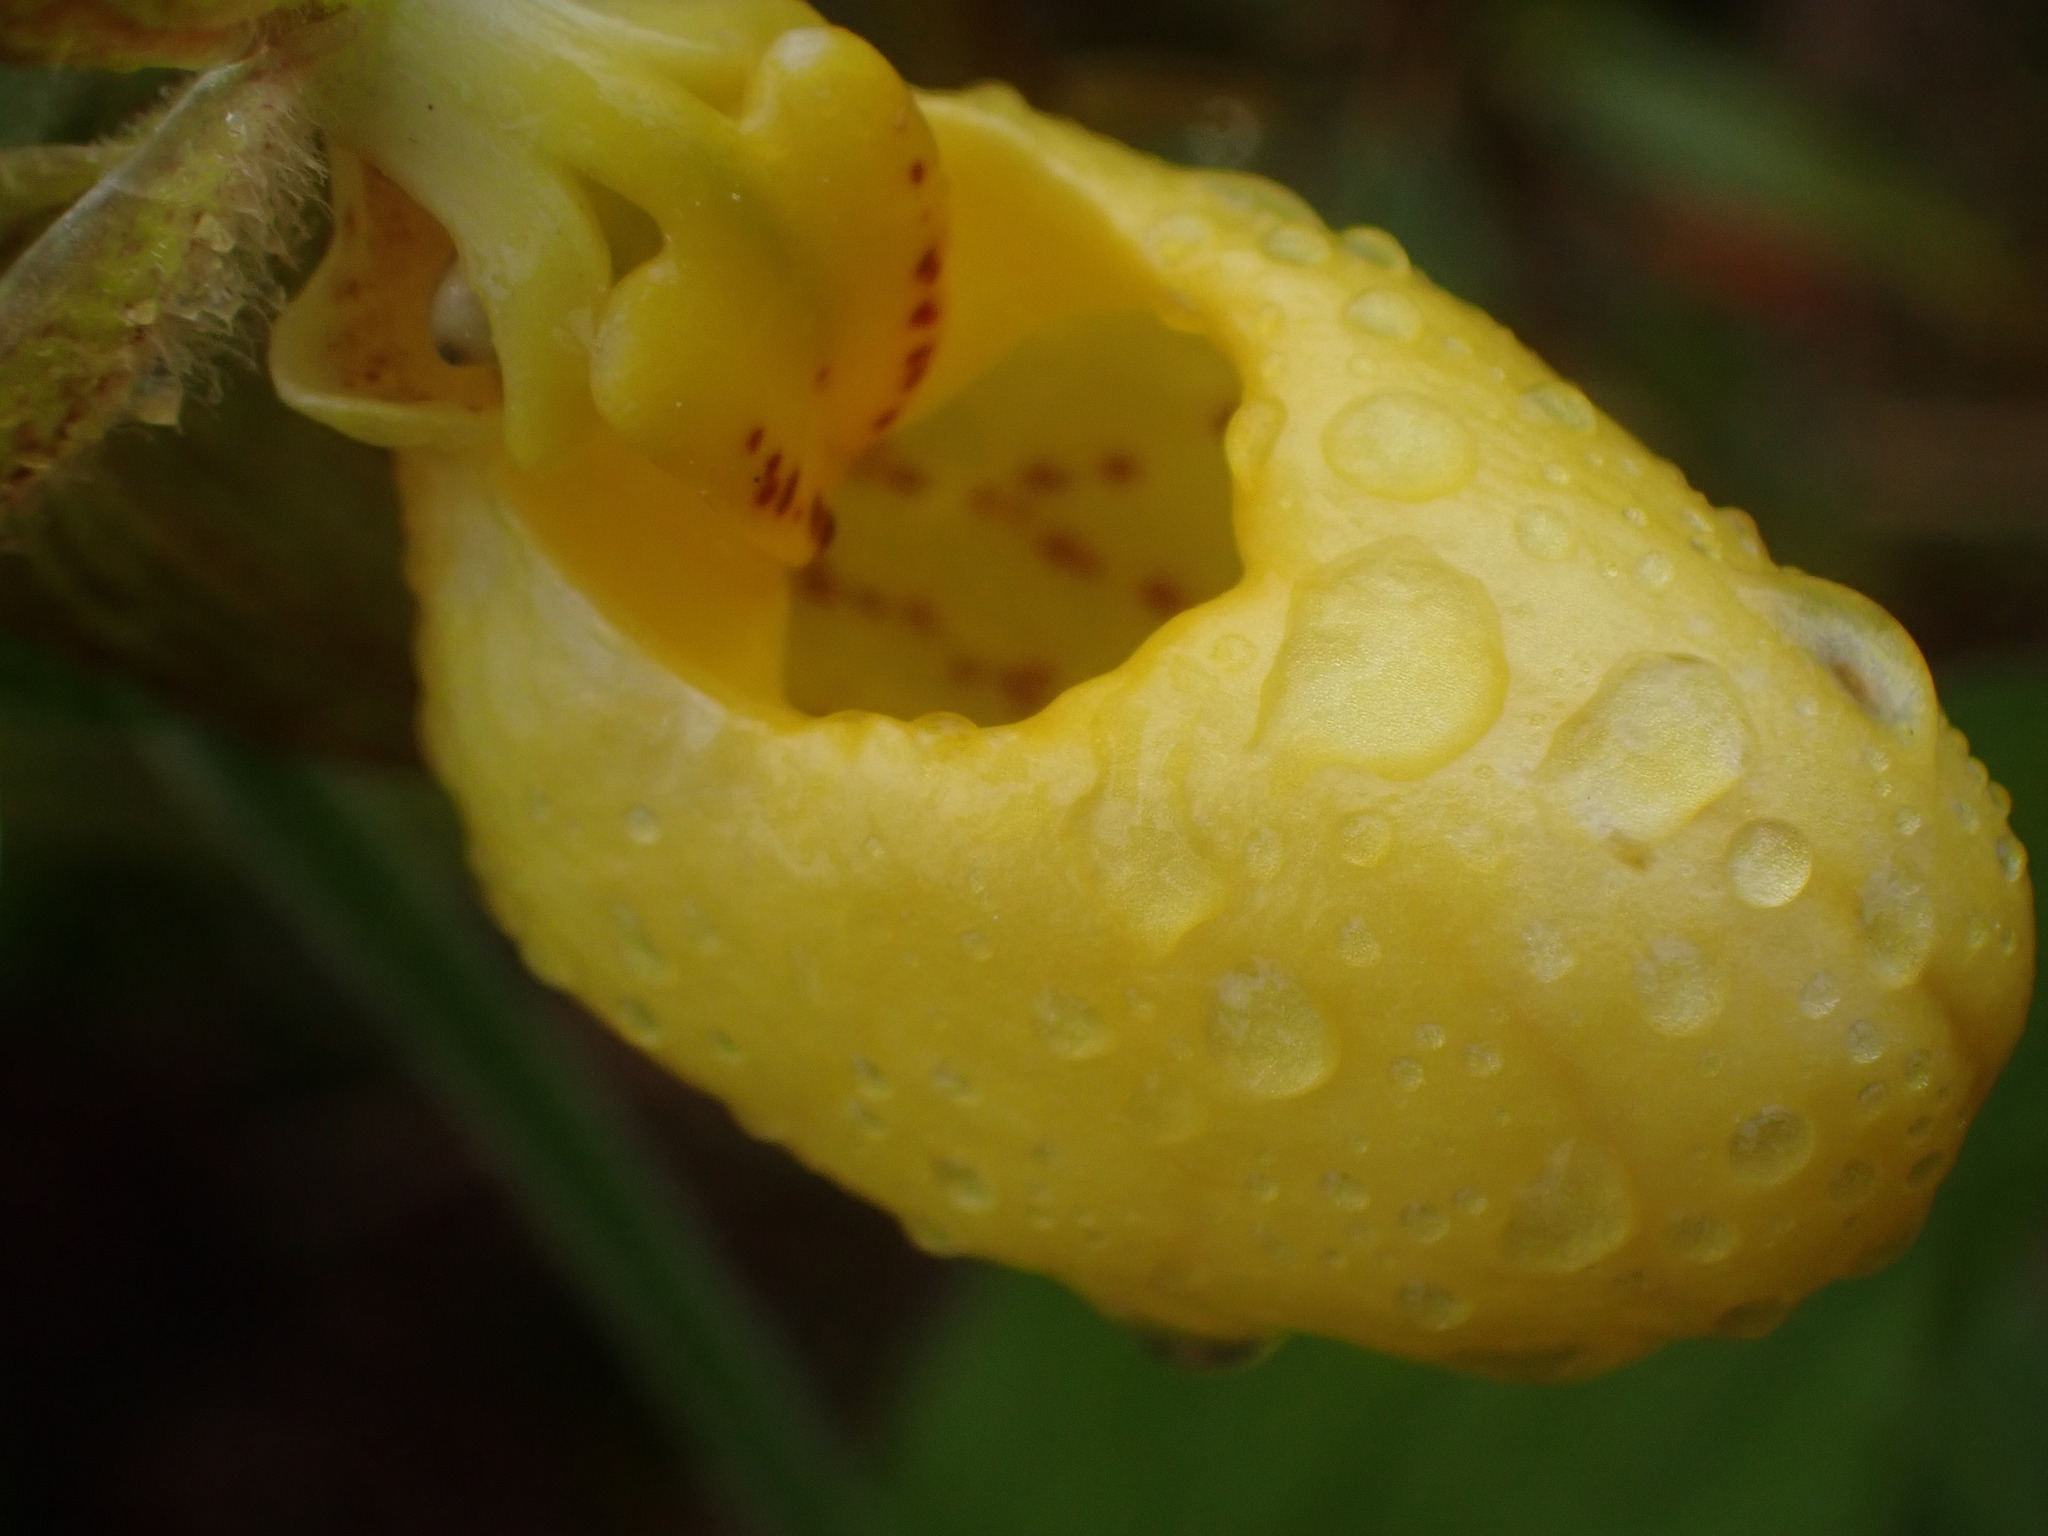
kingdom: Plantae
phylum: Tracheophyta
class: Liliopsida
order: Asparagales
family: Orchidaceae
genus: Cypripedium
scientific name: Cypripedium parviflorum
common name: American yellow lady's-slipper
